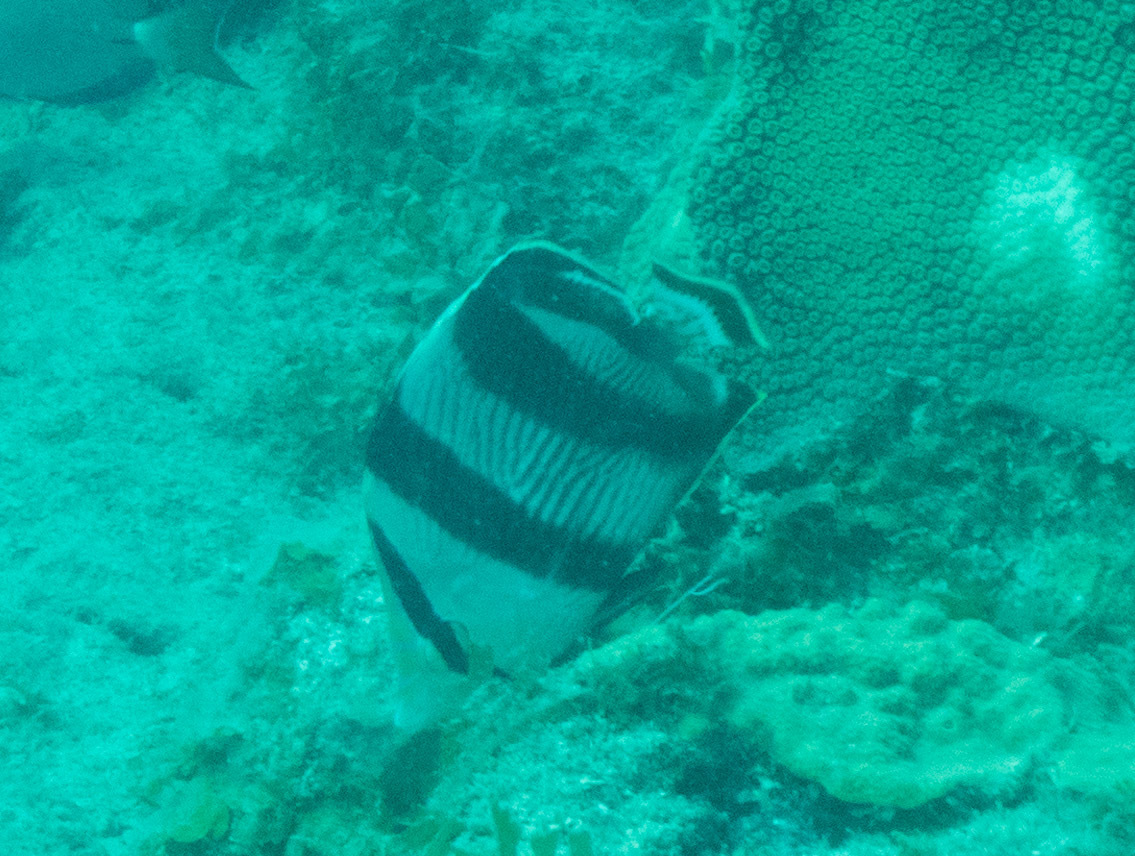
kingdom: Animalia
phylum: Chordata
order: Perciformes
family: Chaetodontidae
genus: Chaetodon
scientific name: Chaetodon striatus
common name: Banded butterflyfish
